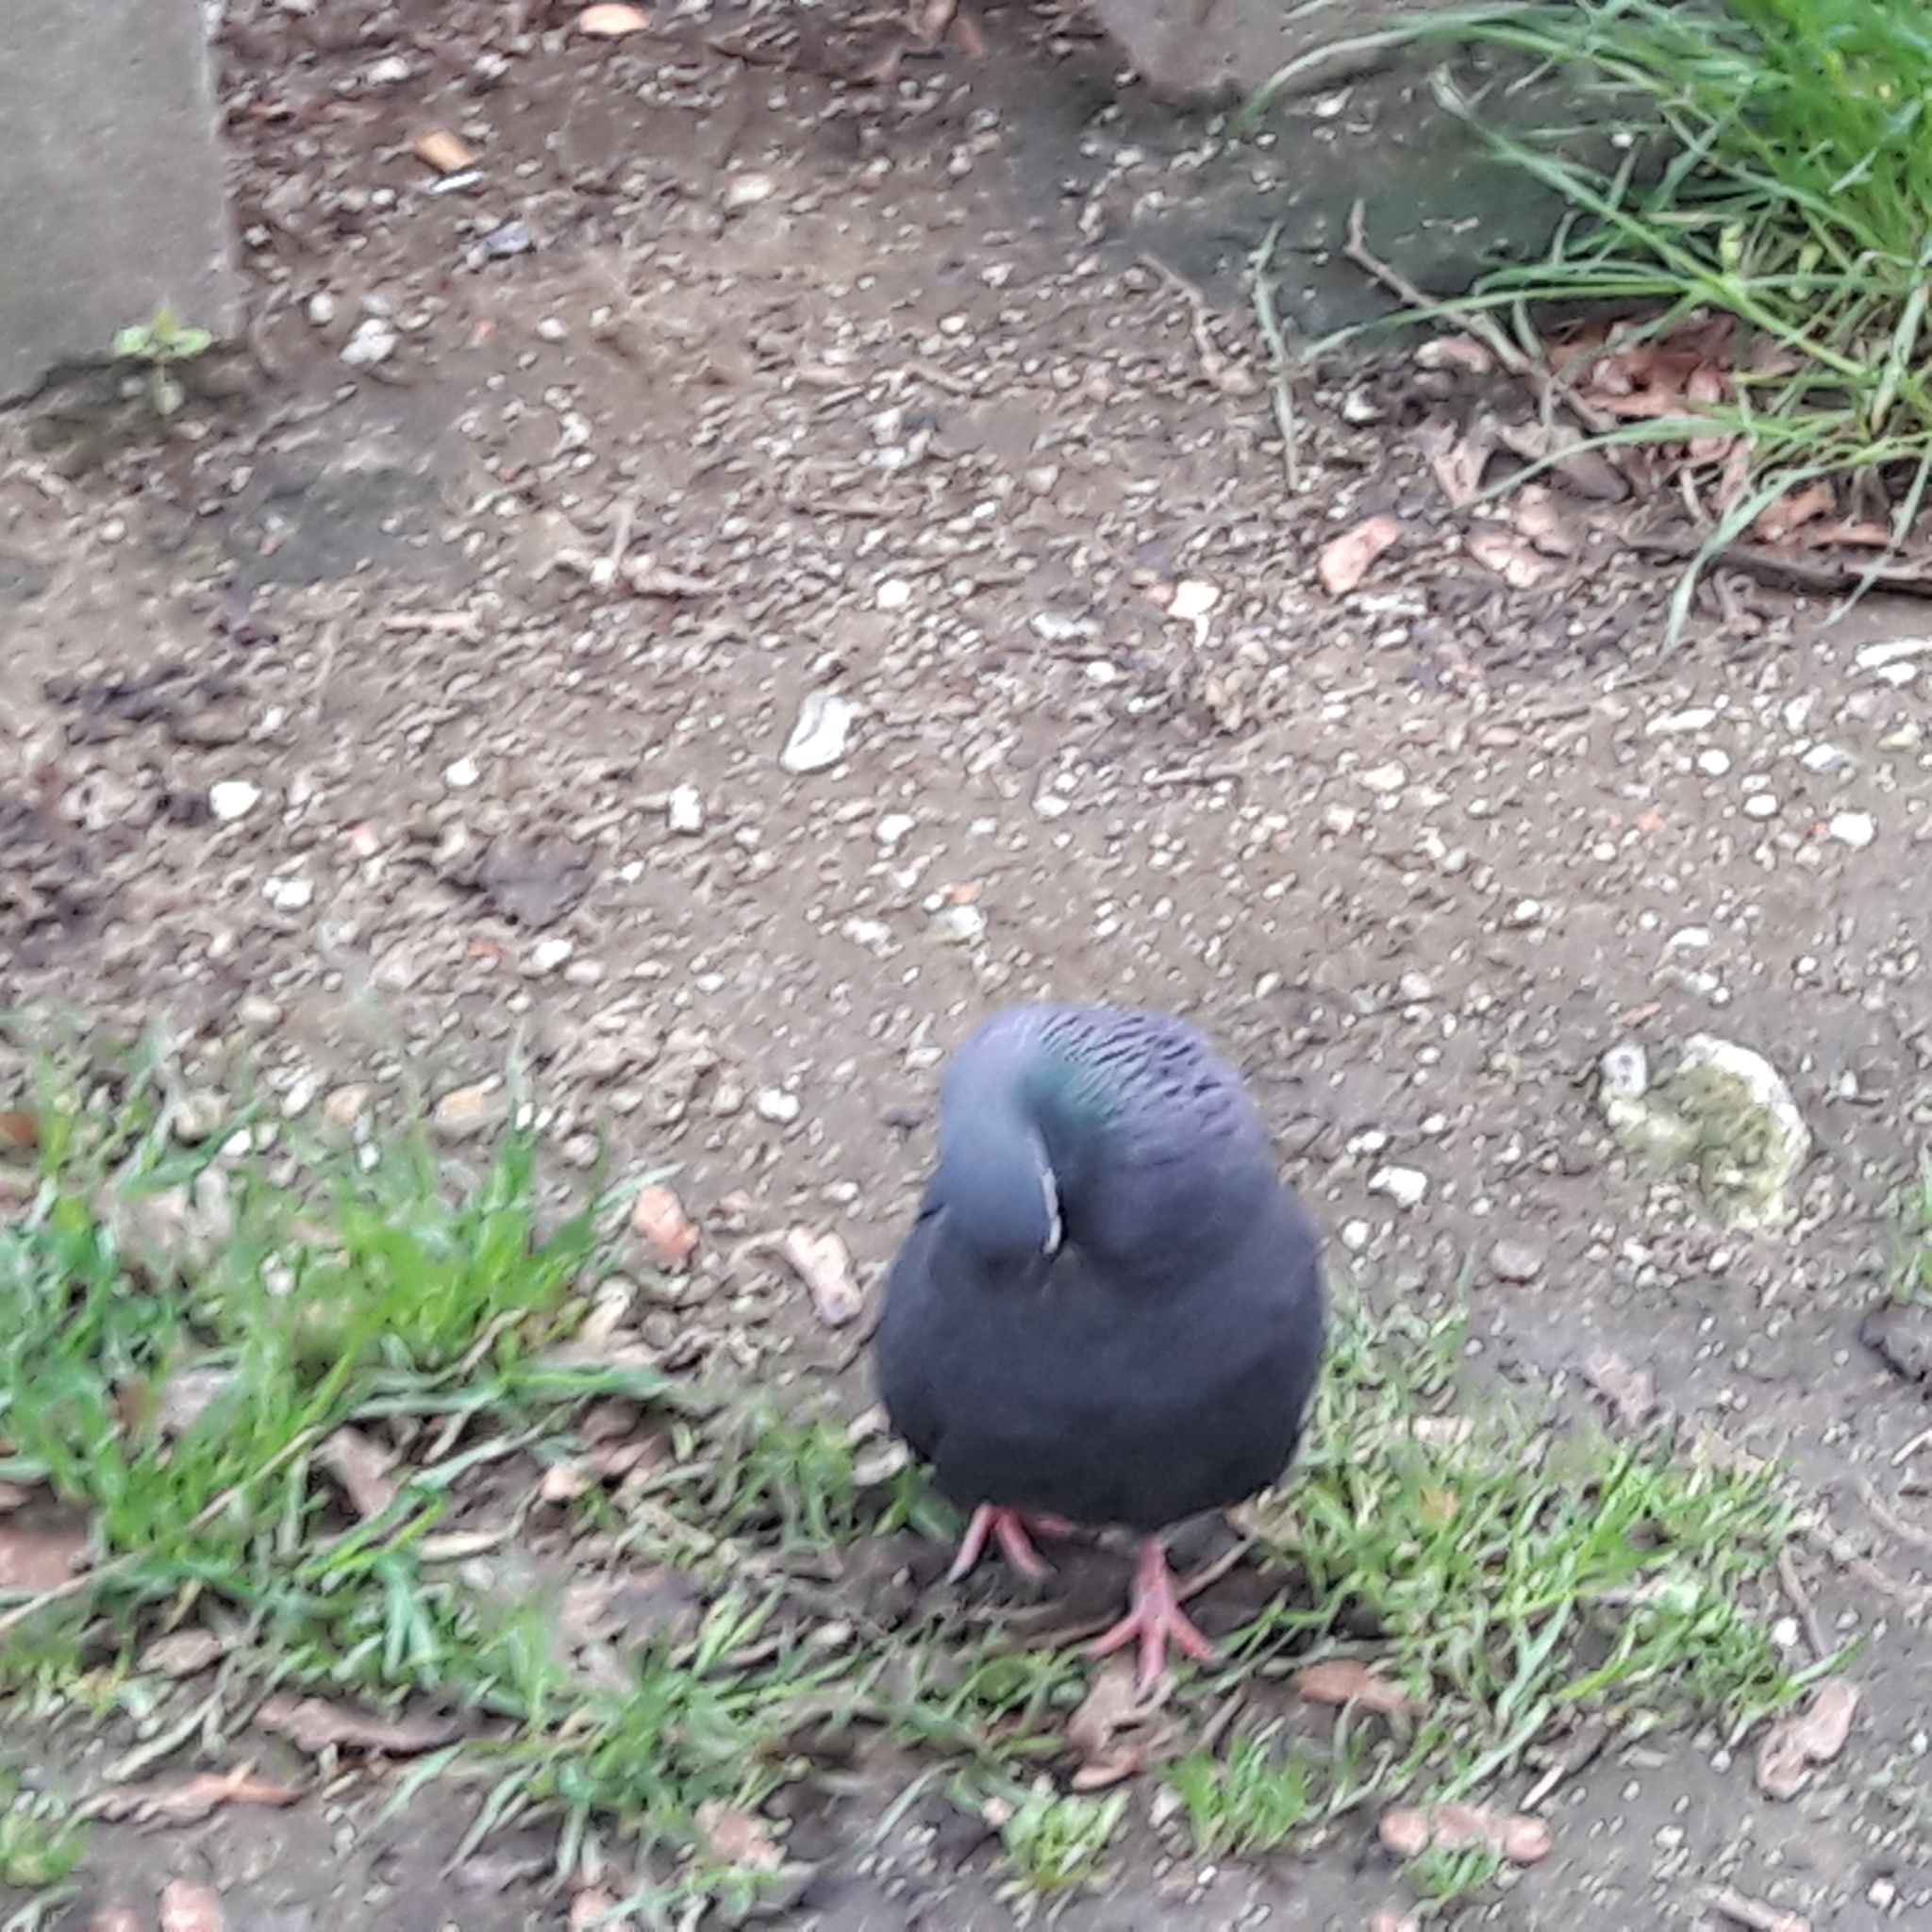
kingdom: Animalia
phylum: Chordata
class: Aves
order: Columbiformes
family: Columbidae
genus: Columba
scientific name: Columba livia
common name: Rock pigeon
